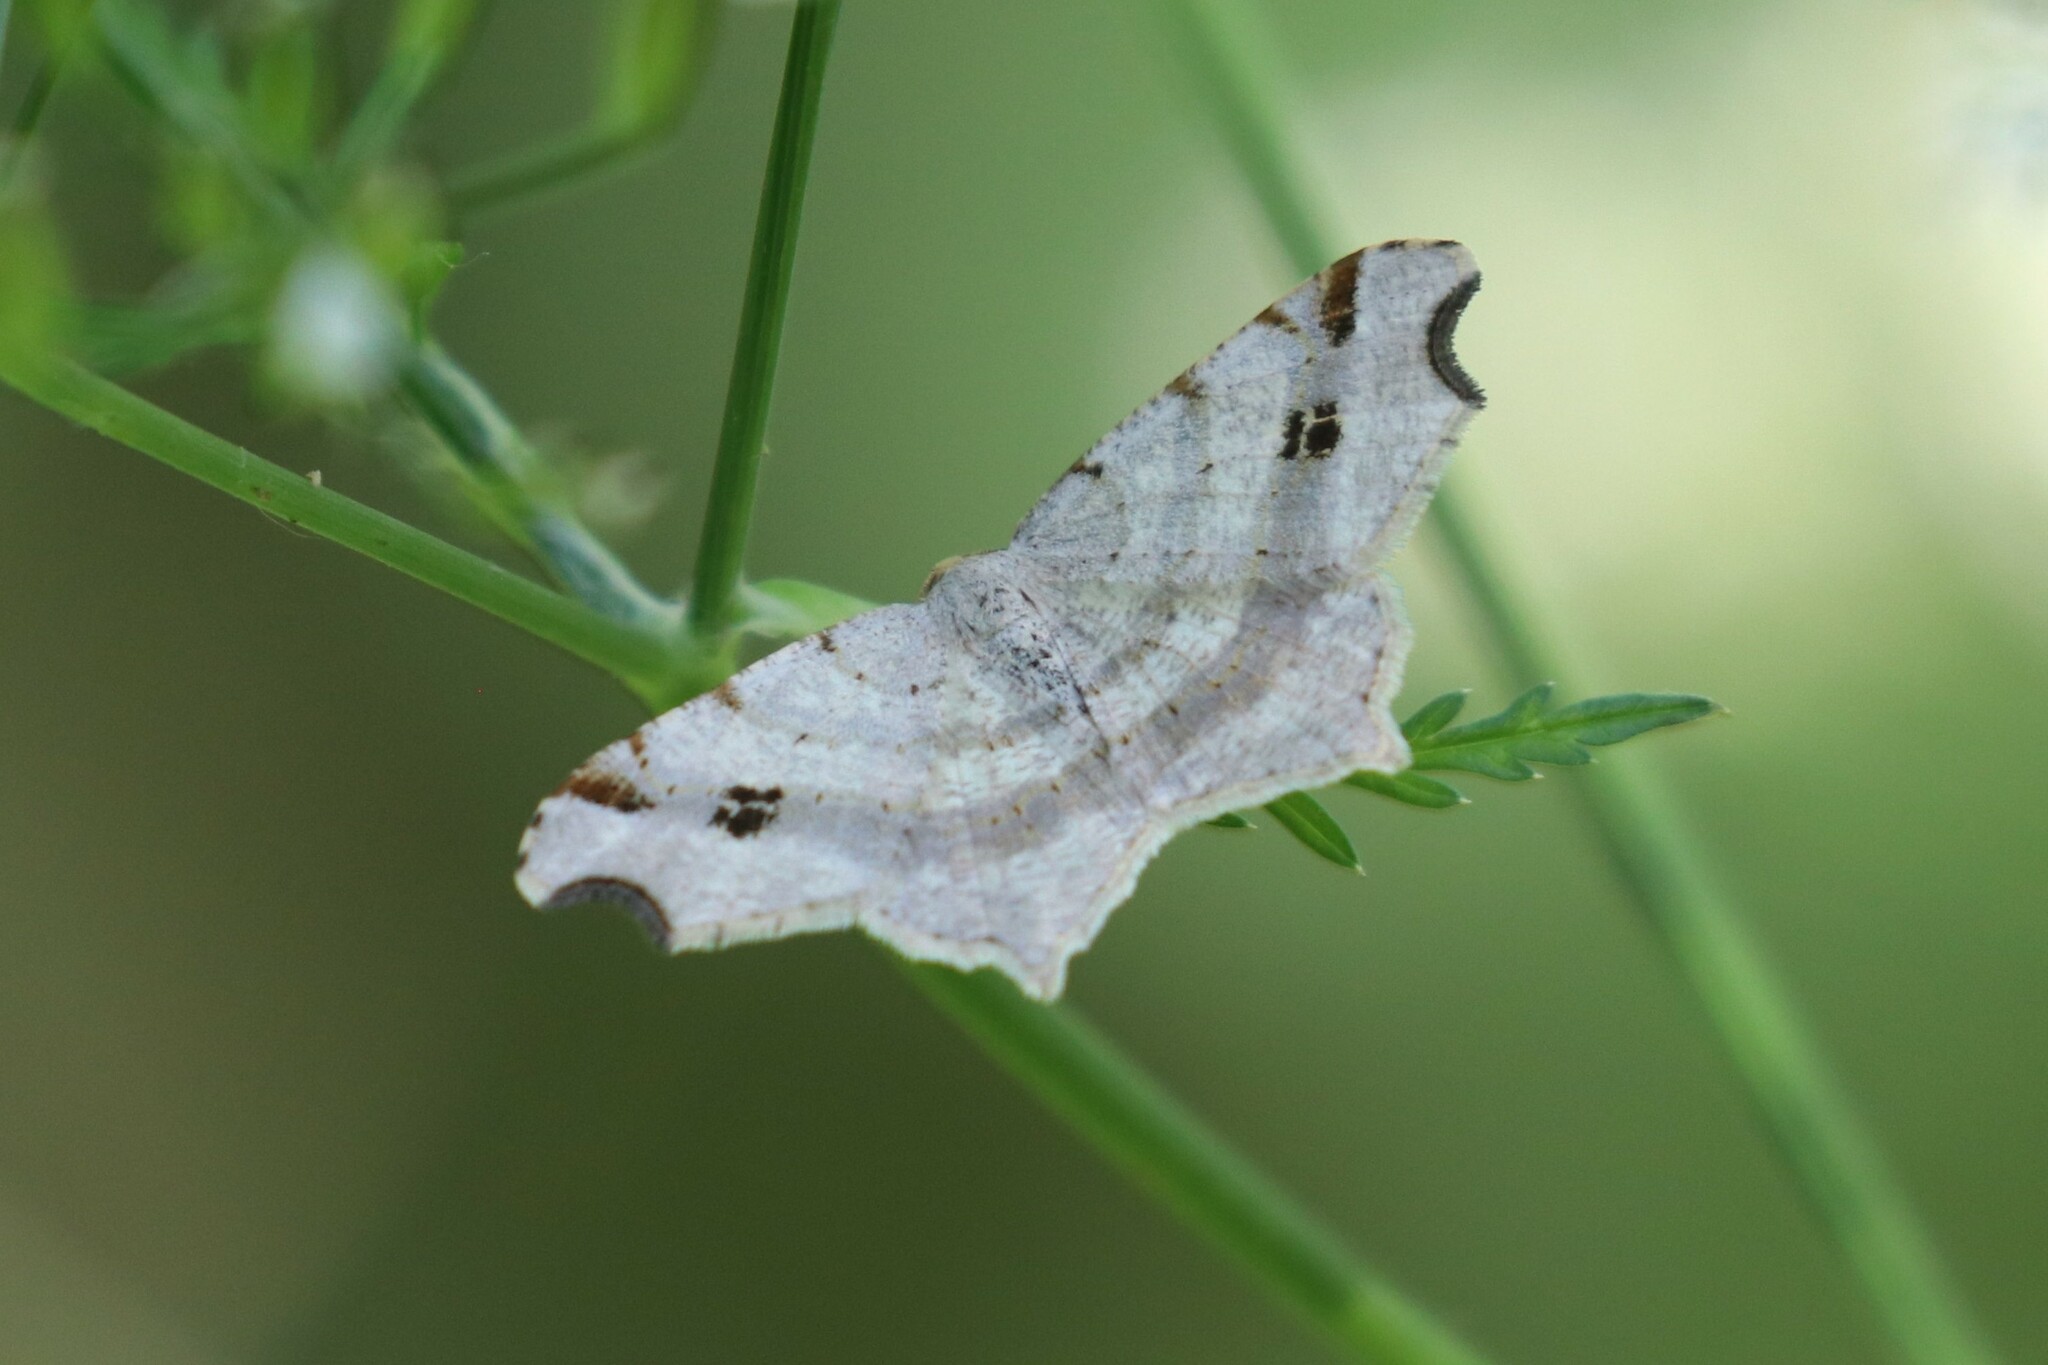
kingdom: Animalia
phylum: Arthropoda
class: Insecta
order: Lepidoptera
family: Geometridae
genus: Macaria
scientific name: Macaria alternata
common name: Sharp-angled peacock
